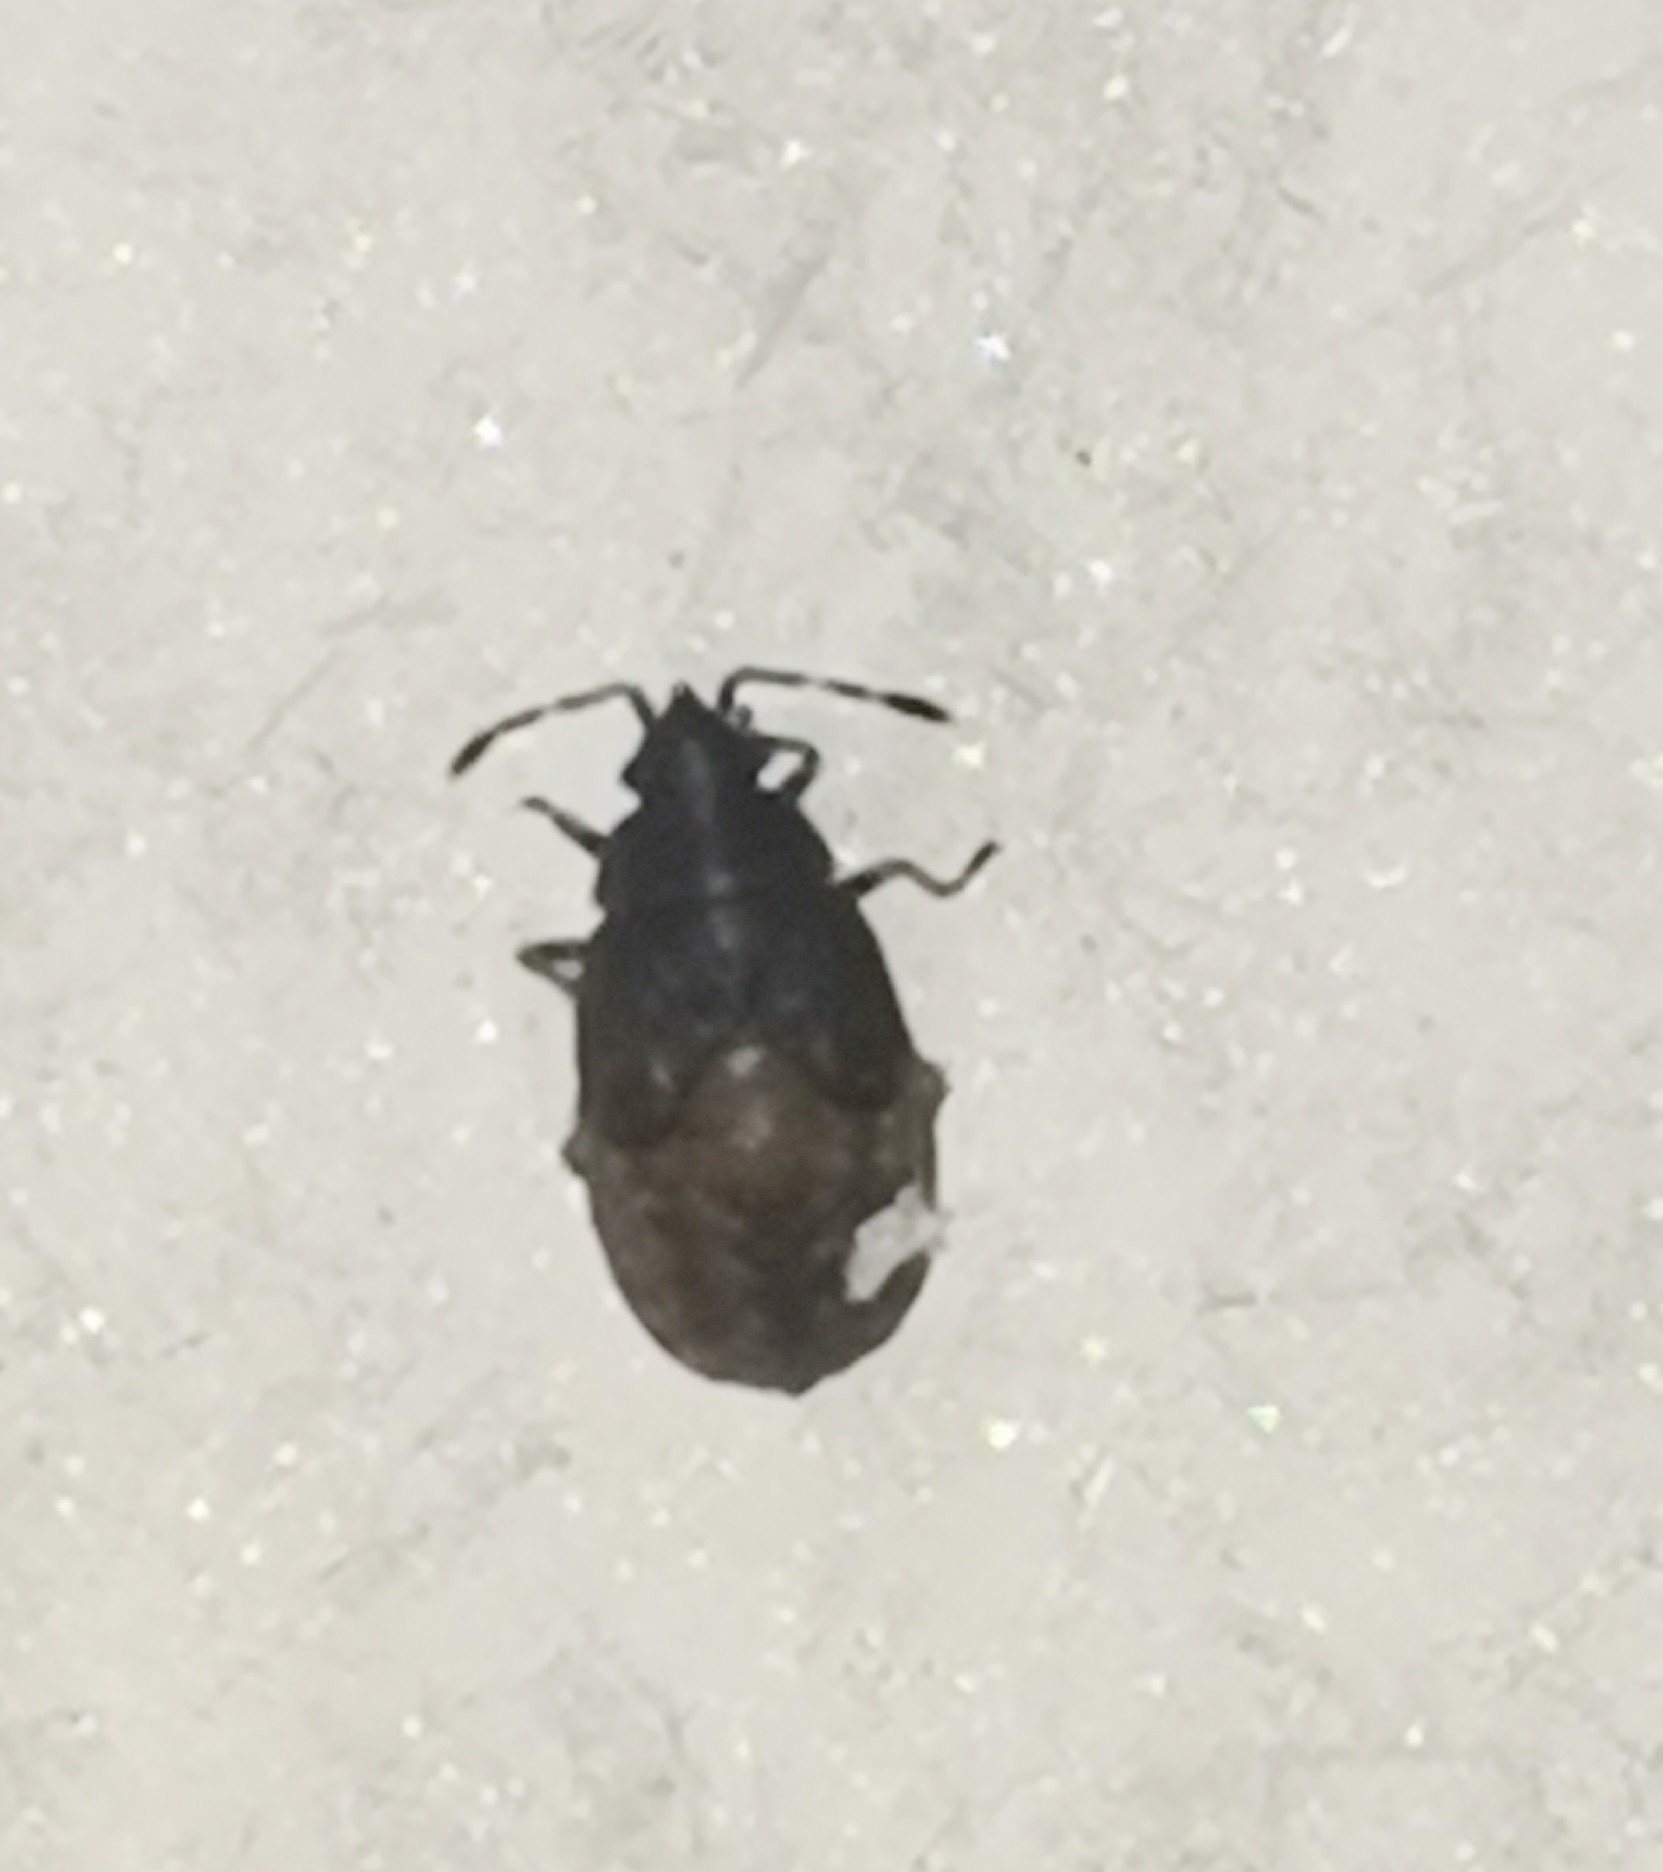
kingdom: Animalia
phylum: Arthropoda
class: Insecta
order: Hemiptera
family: Lygaeidae
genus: Kleidocerys
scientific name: Kleidocerys resedae
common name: Birch catkin bug
